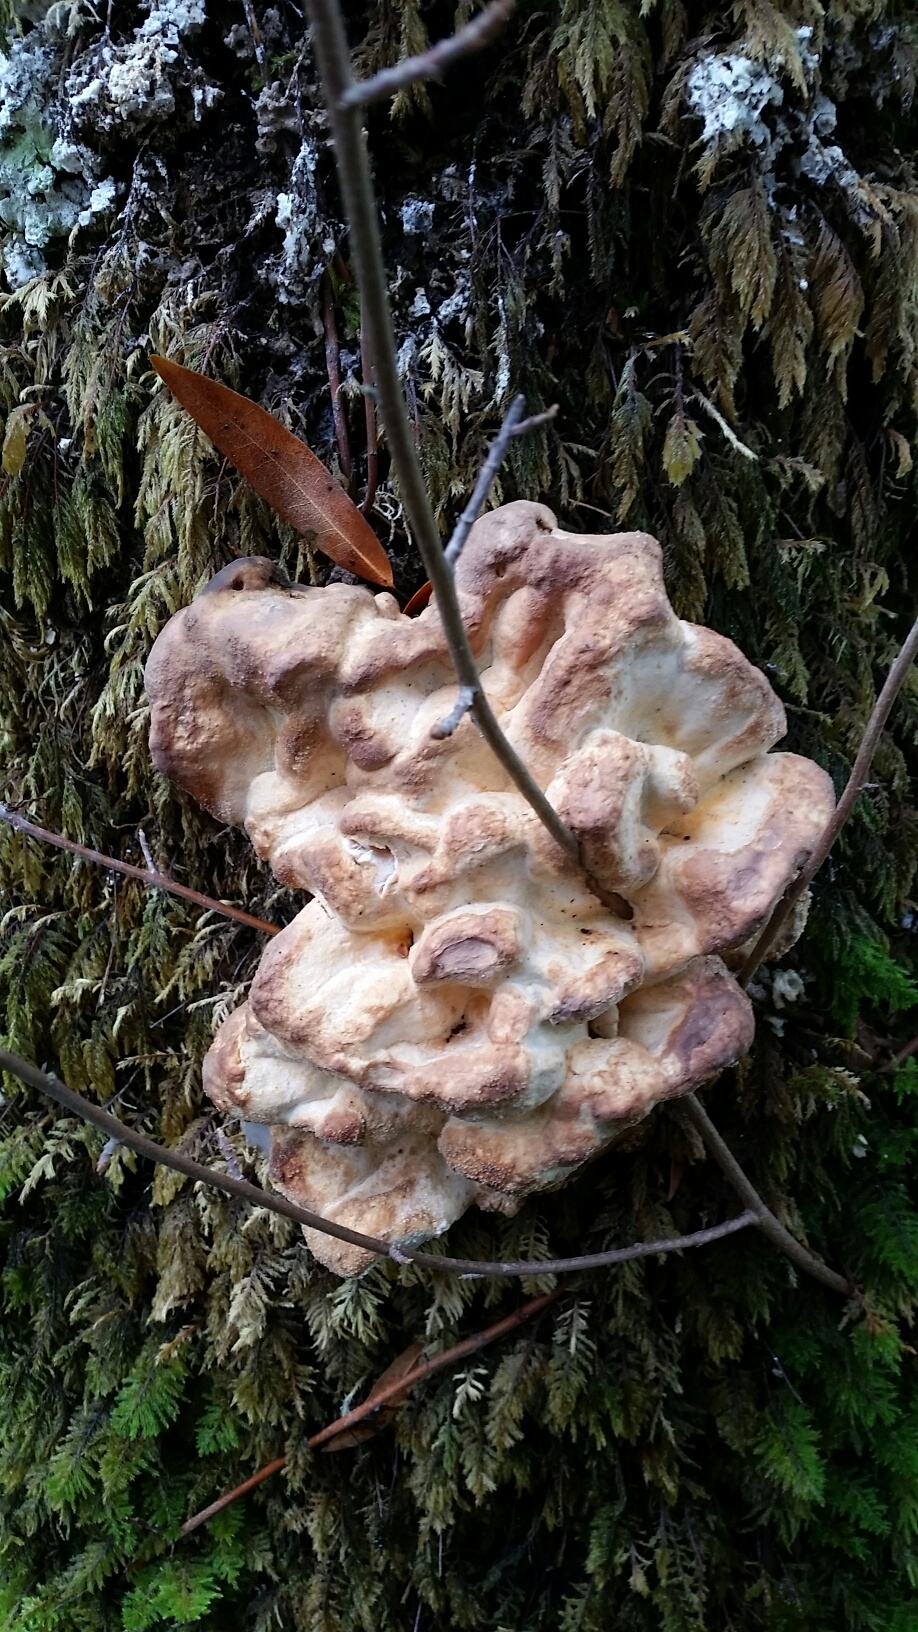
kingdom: Fungi
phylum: Basidiomycota
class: Agaricomycetes
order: Polyporales
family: Laetiporaceae
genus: Laetiporus
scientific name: Laetiporus gilbertsonii
